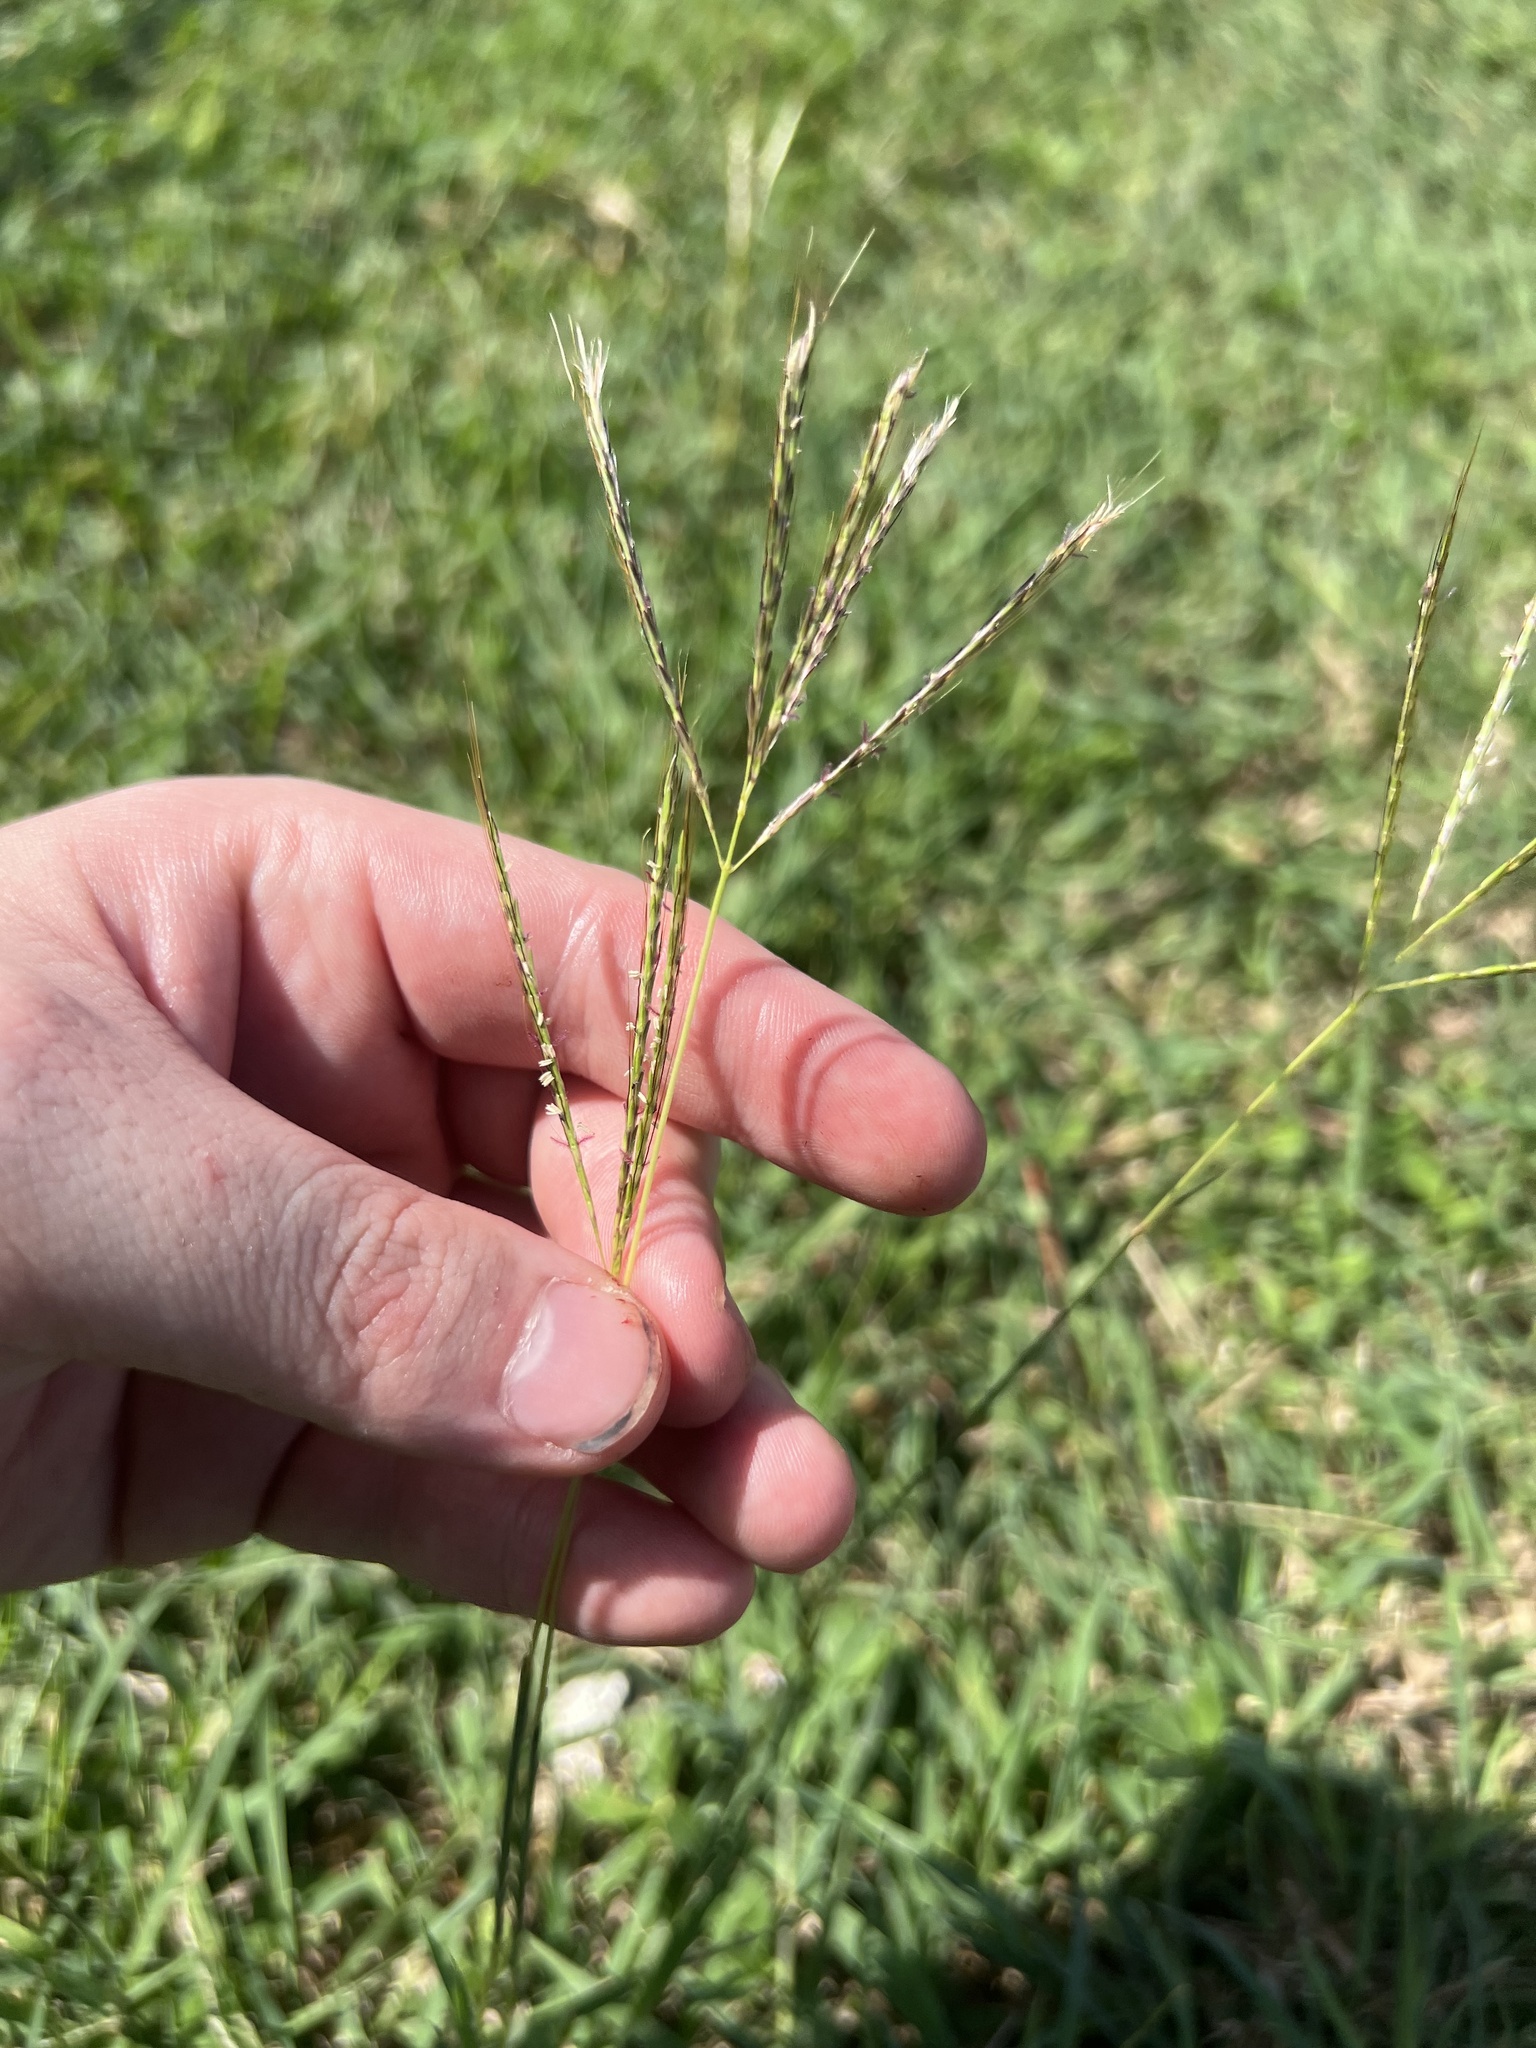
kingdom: Plantae
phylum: Tracheophyta
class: Liliopsida
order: Poales
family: Poaceae
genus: Bothriochloa
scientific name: Bothriochloa pertusa
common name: Pitted beardgrass
